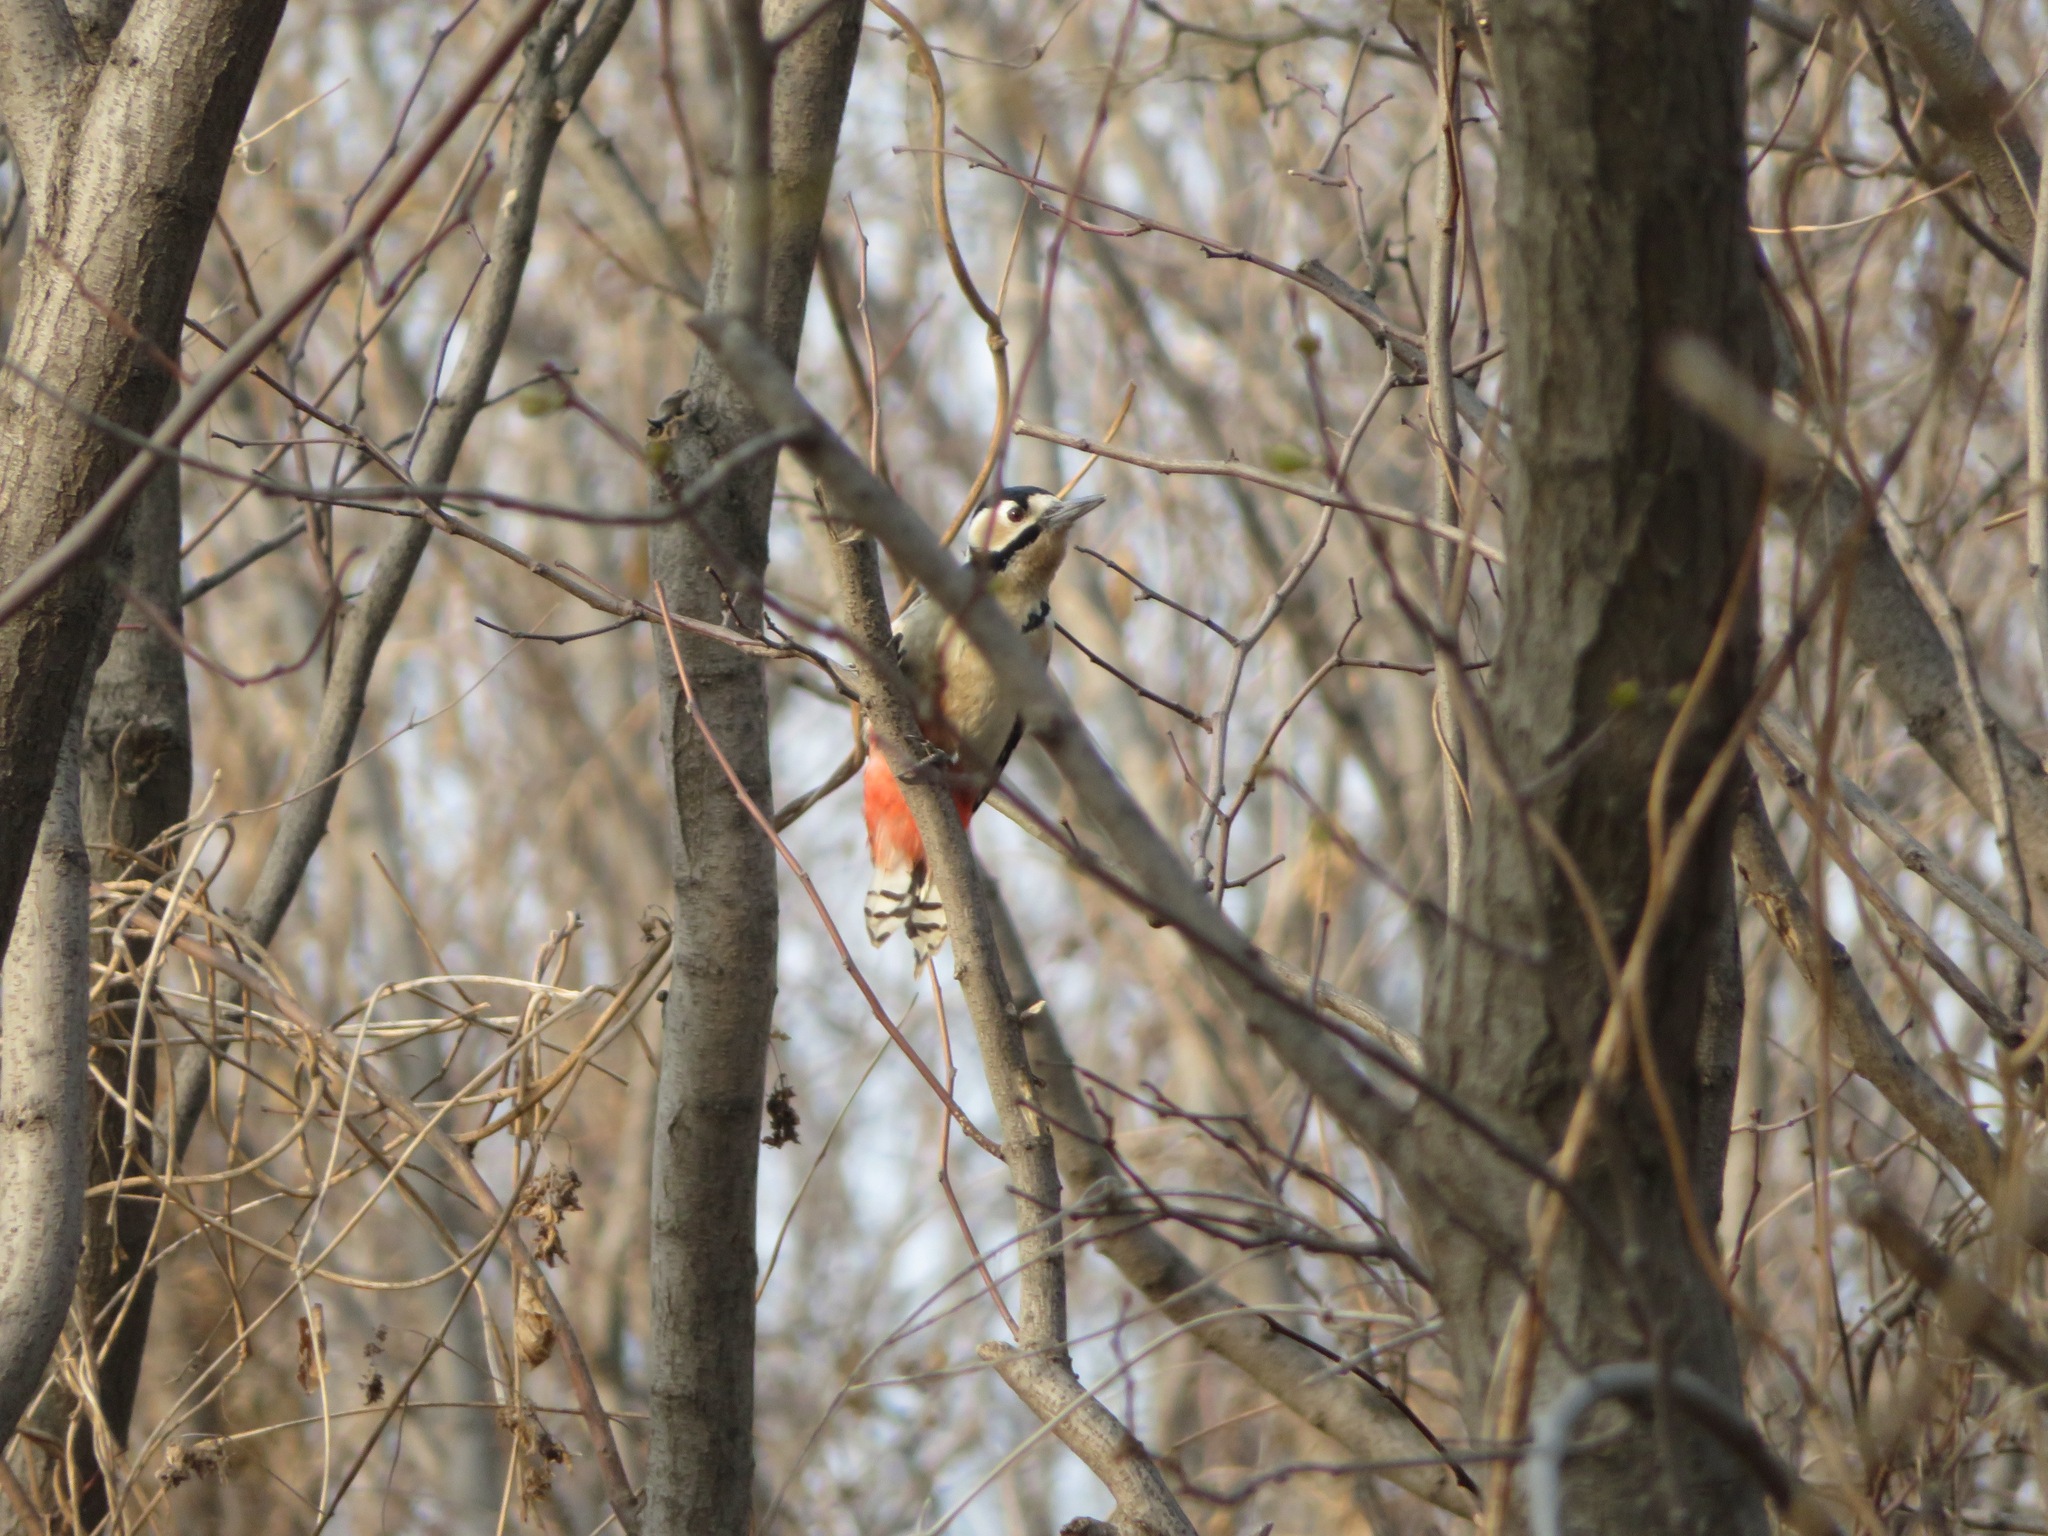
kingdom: Animalia
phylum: Chordata
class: Aves
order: Piciformes
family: Picidae
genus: Dendrocopos
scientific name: Dendrocopos major
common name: Great spotted woodpecker
